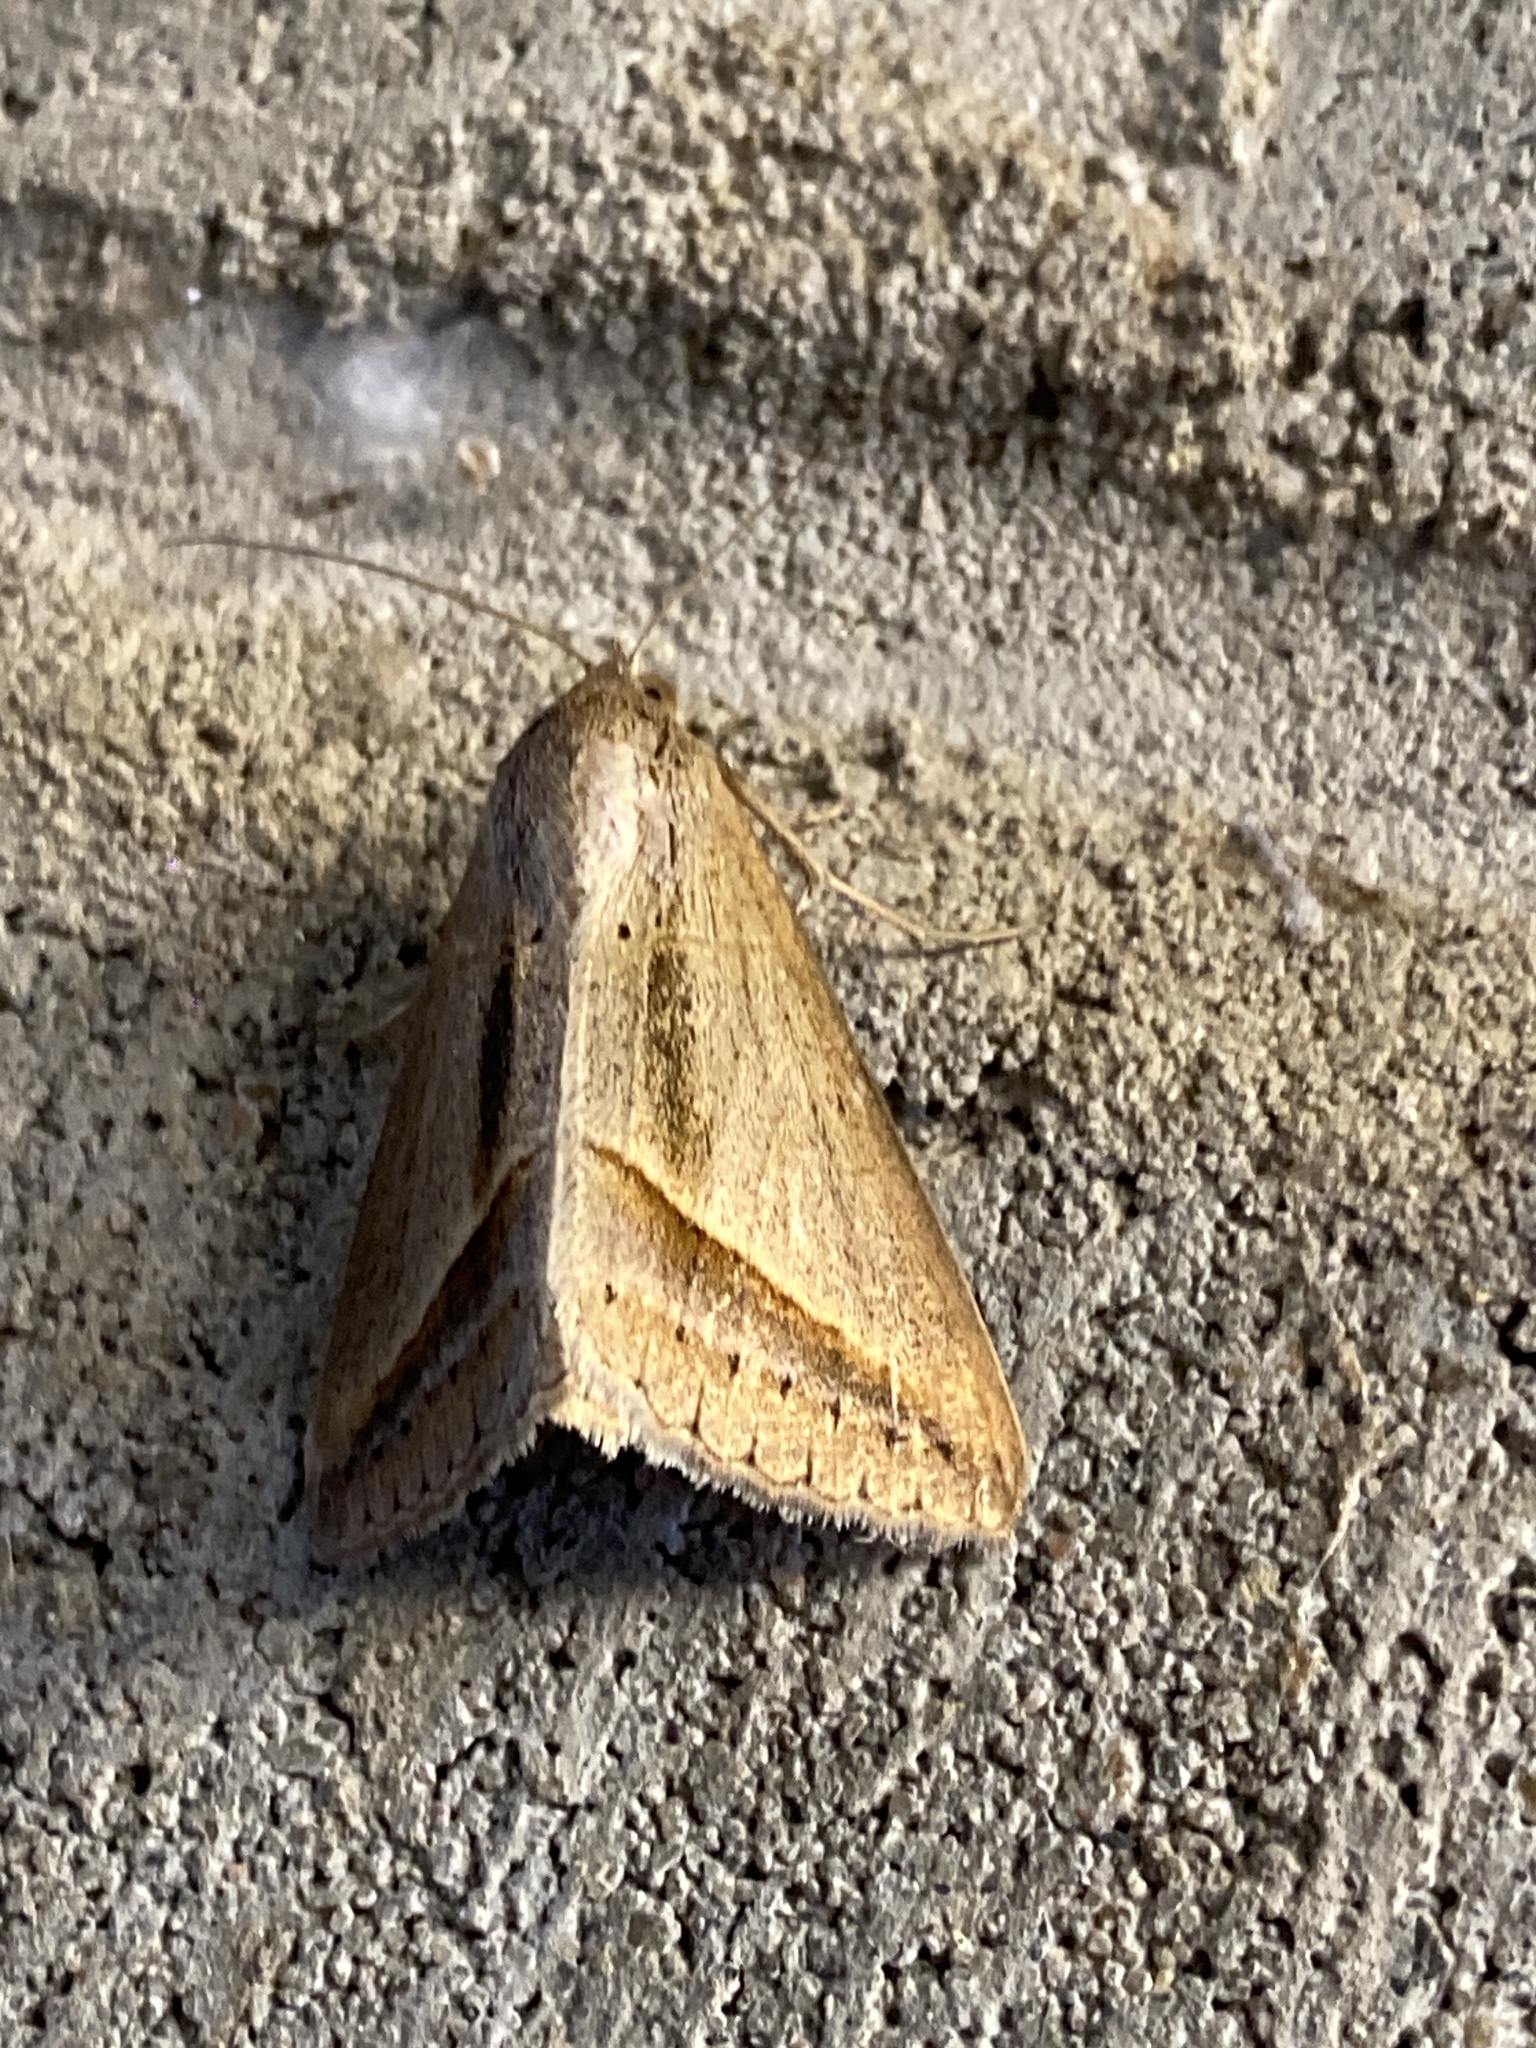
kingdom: Animalia
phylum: Arthropoda
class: Insecta
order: Lepidoptera
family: Erebidae
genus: Mocis
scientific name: Mocis frugalis
